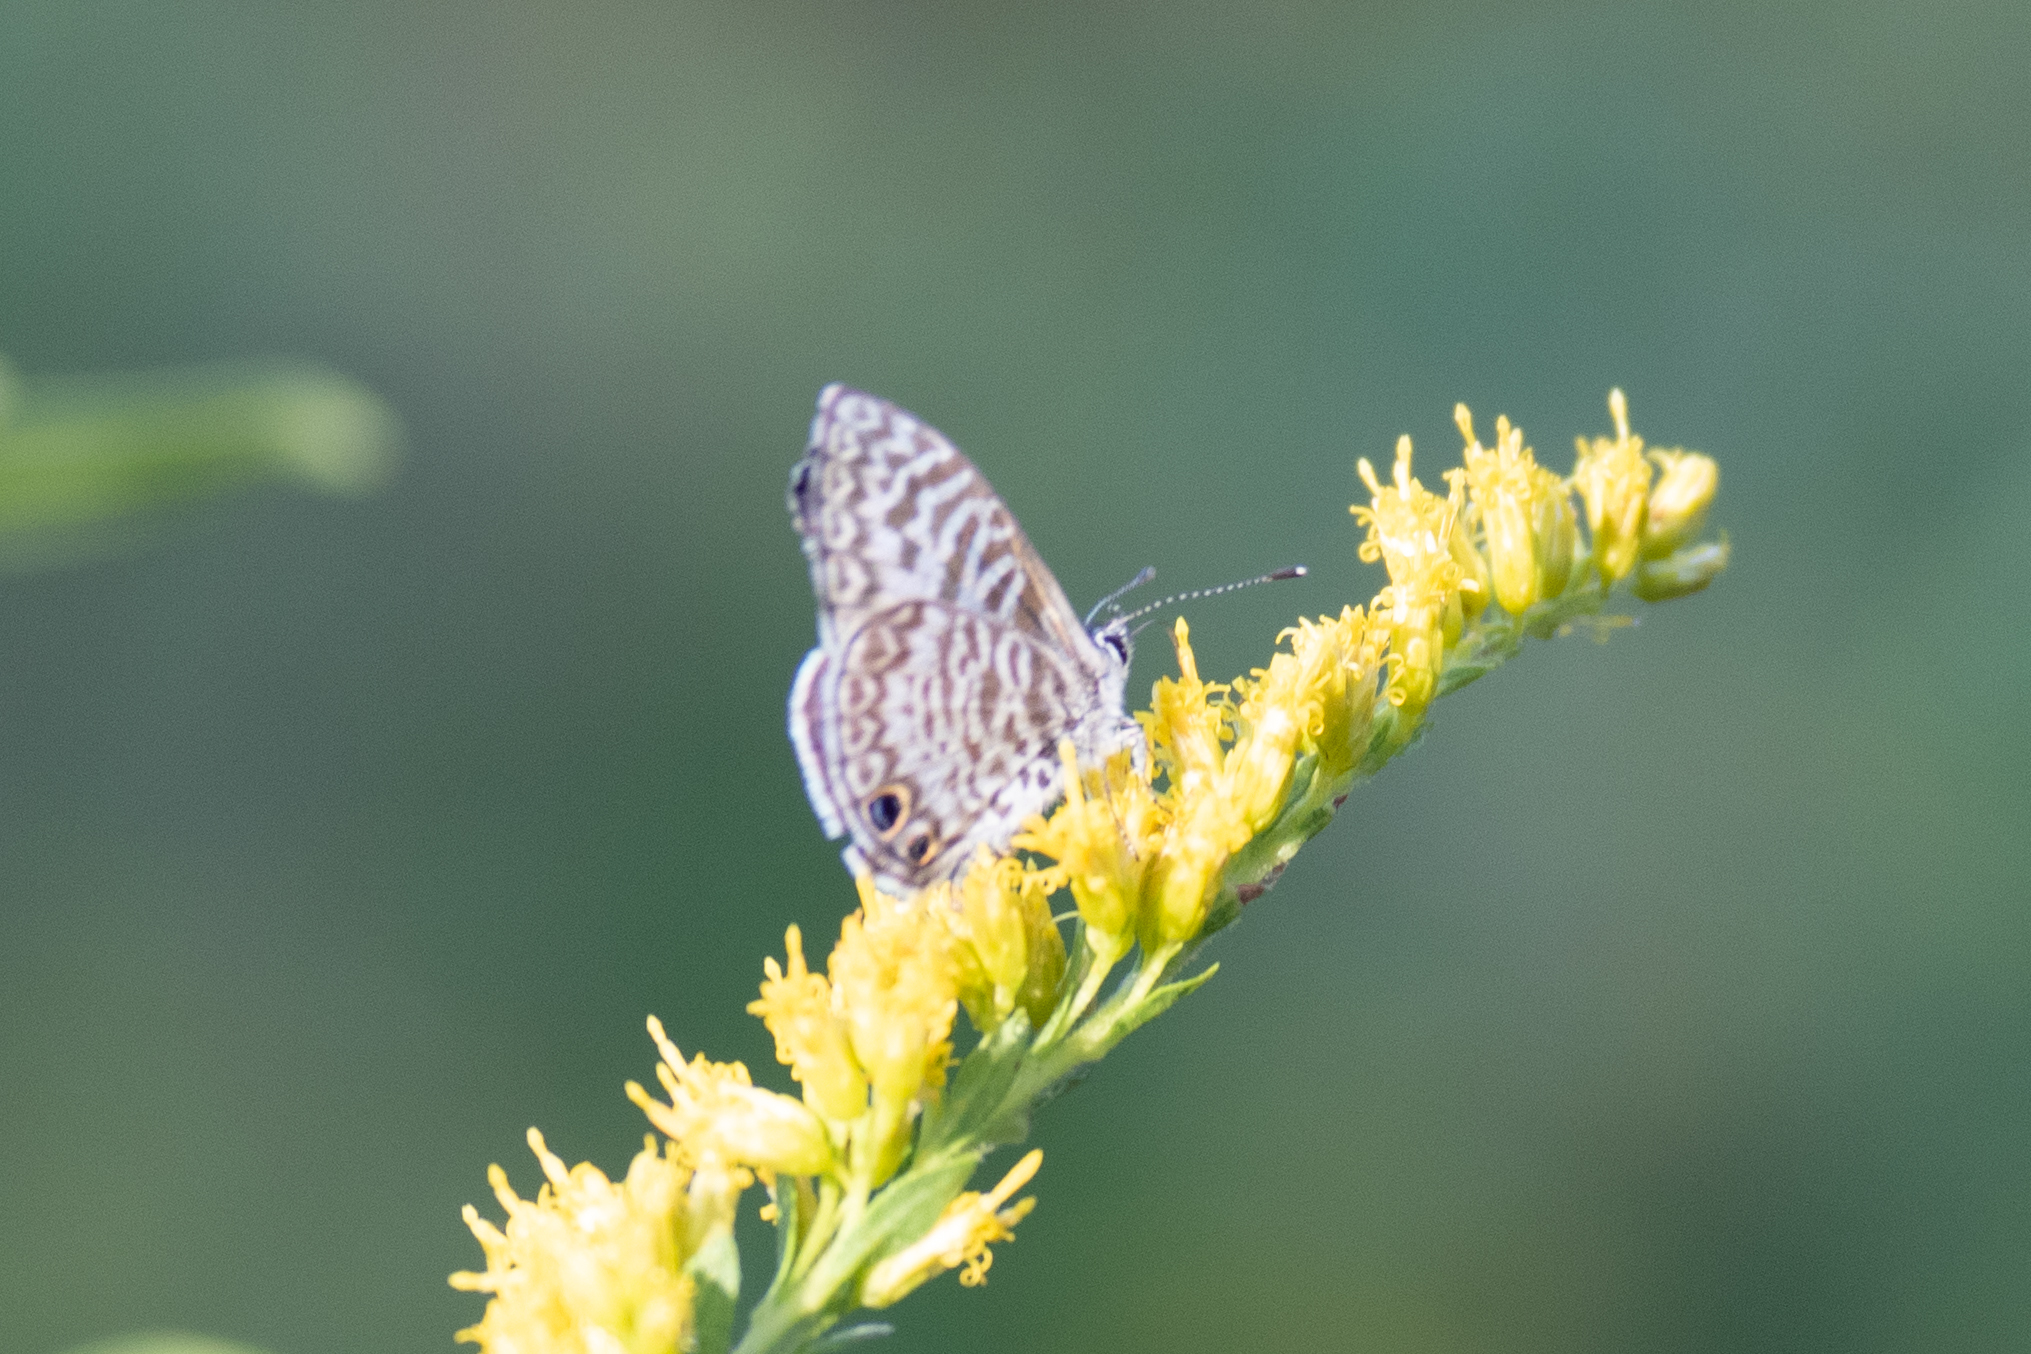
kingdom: Animalia
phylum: Arthropoda
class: Insecta
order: Lepidoptera
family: Lycaenidae
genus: Leptotes
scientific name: Leptotes cassius
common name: Cassius blue
